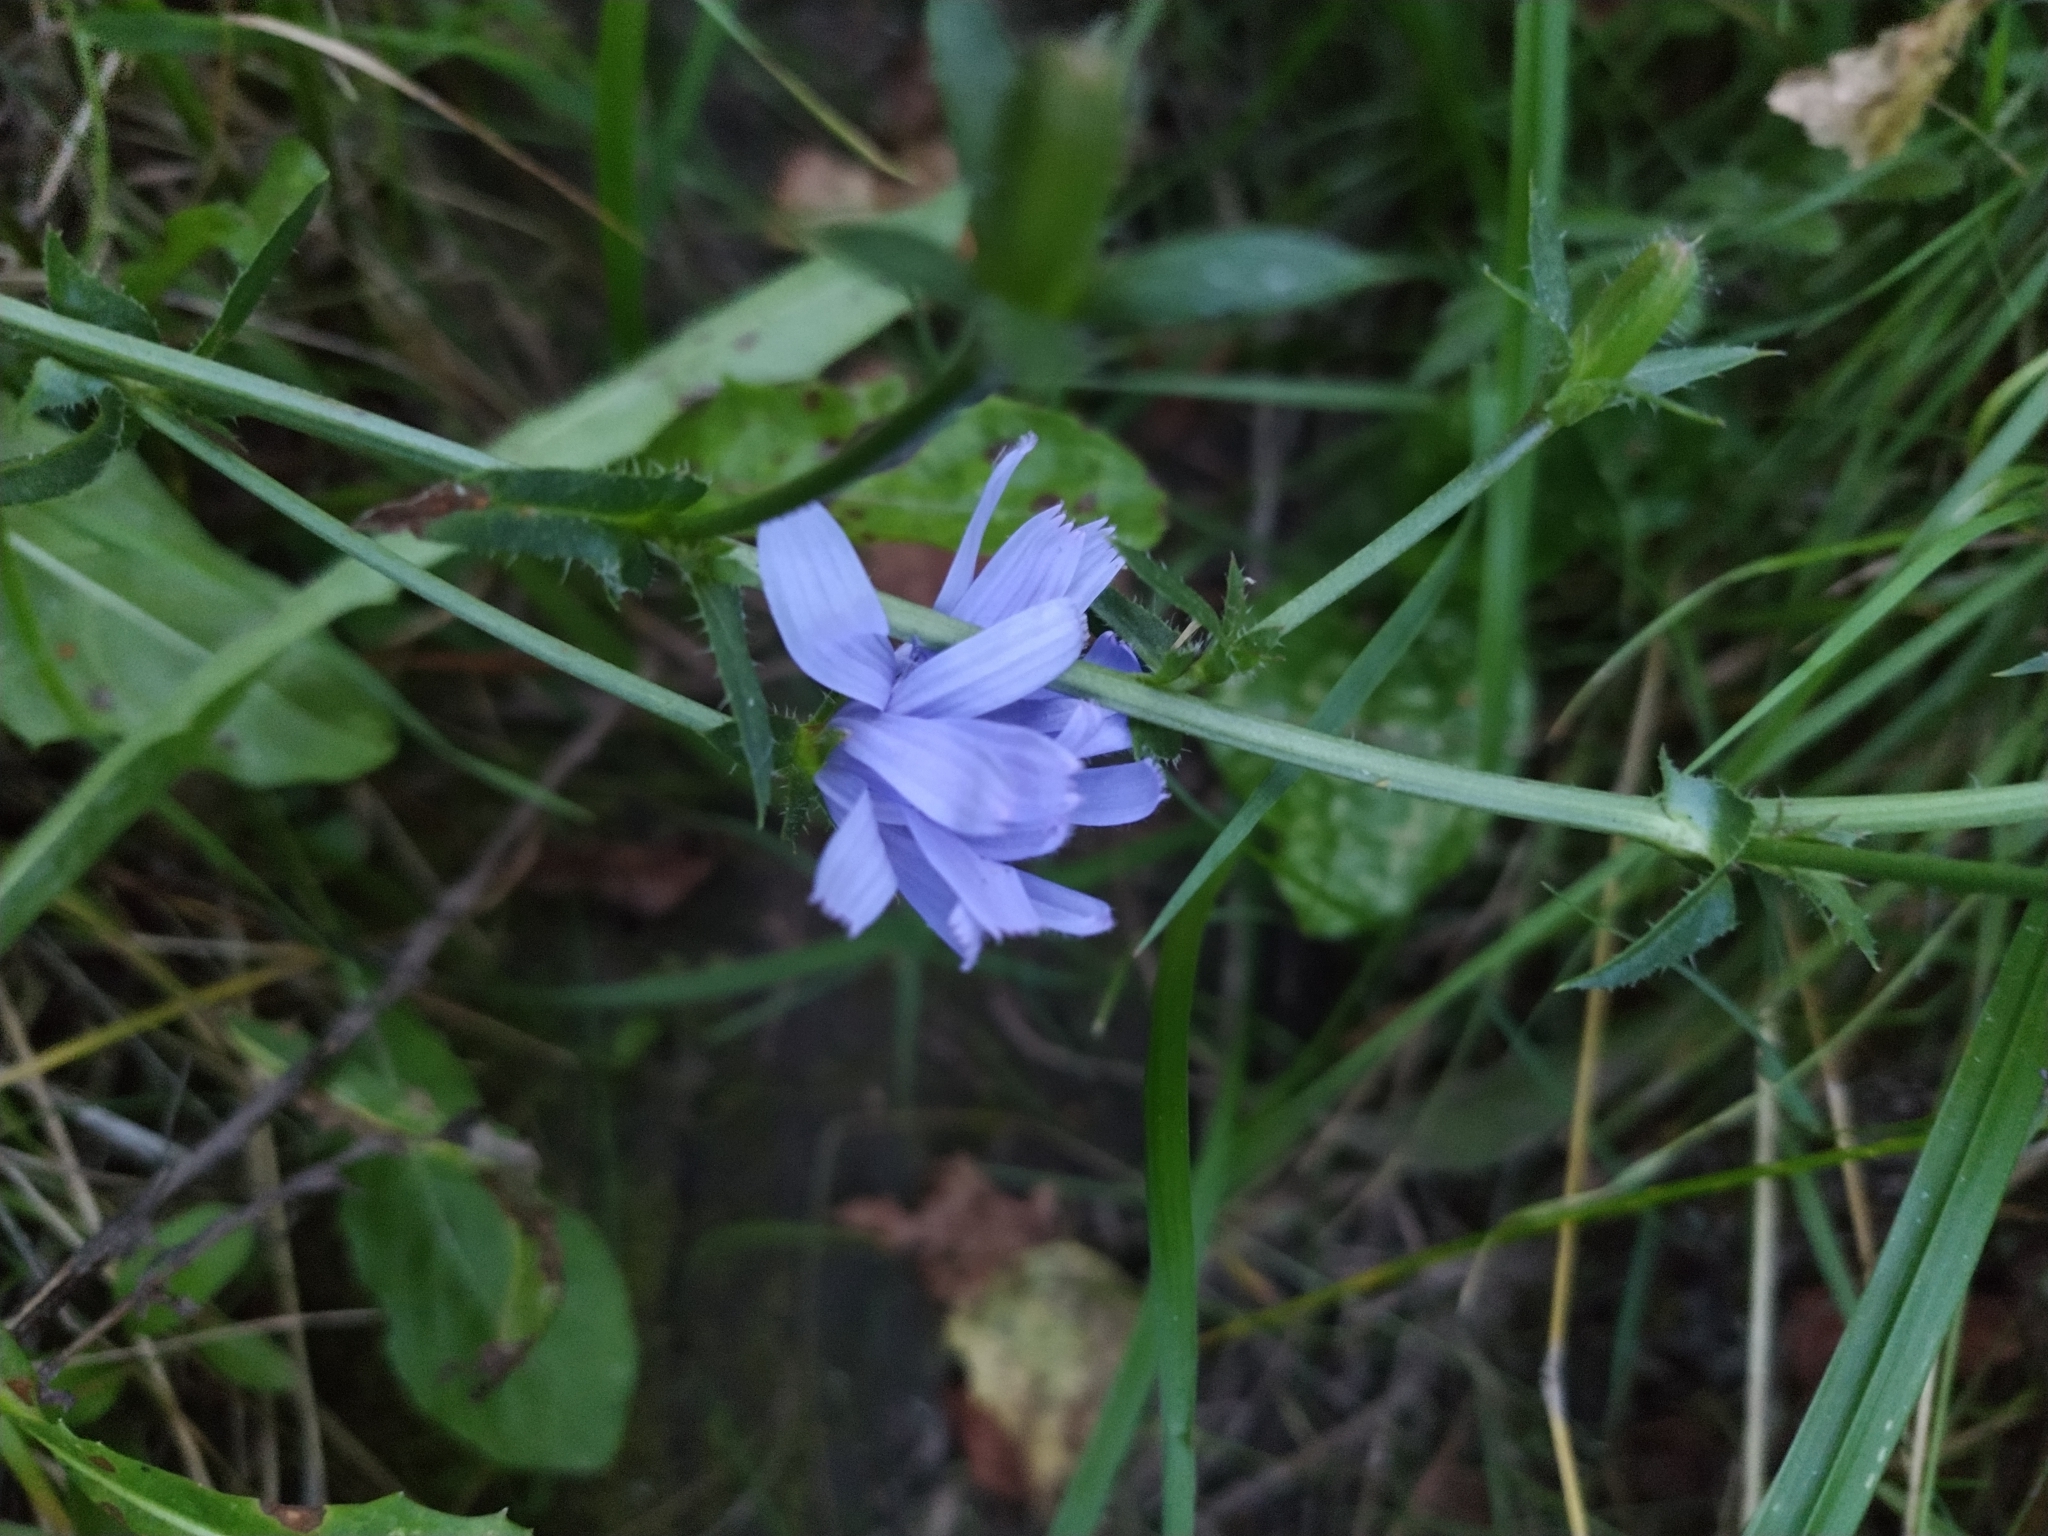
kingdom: Plantae
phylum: Tracheophyta
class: Magnoliopsida
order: Asterales
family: Asteraceae
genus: Cichorium
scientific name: Cichorium intybus
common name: Chicory
